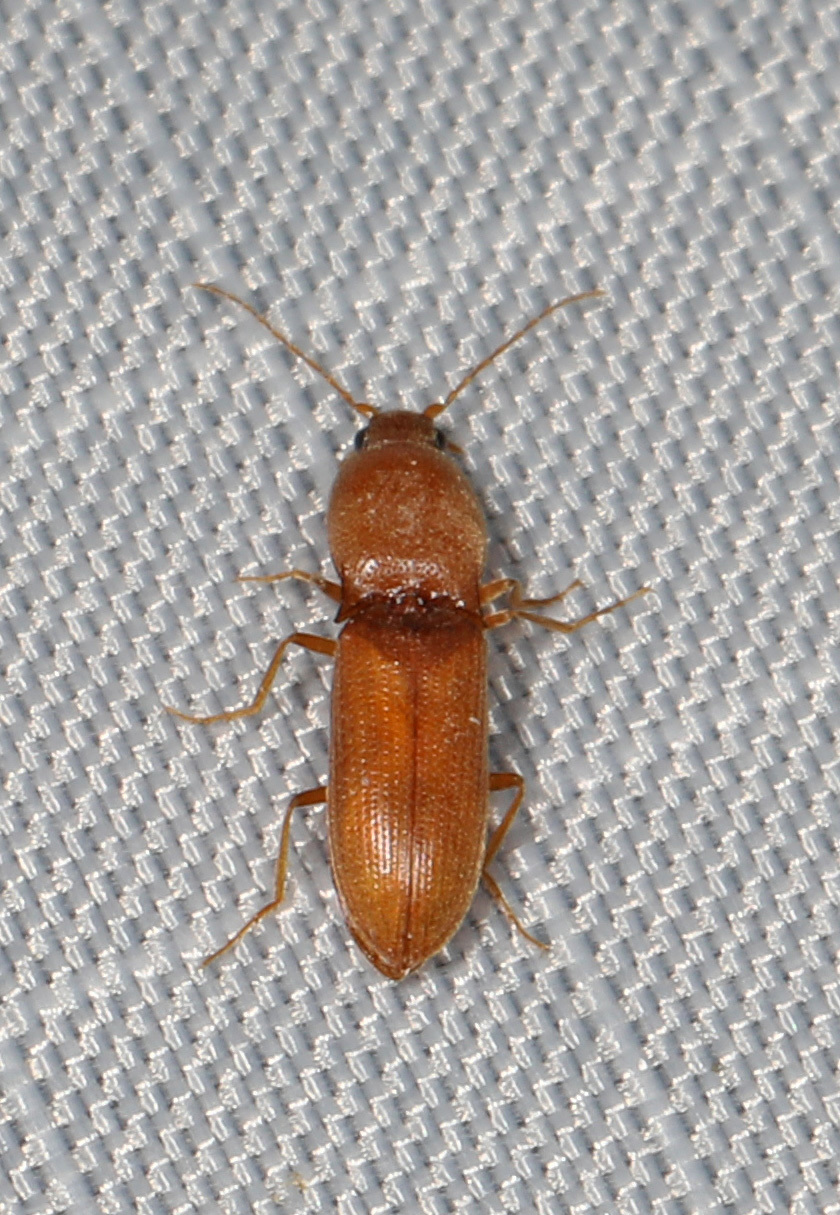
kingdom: Animalia
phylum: Arthropoda
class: Insecta
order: Coleoptera
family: Elateridae
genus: Monocrepidius
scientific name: Monocrepidius
